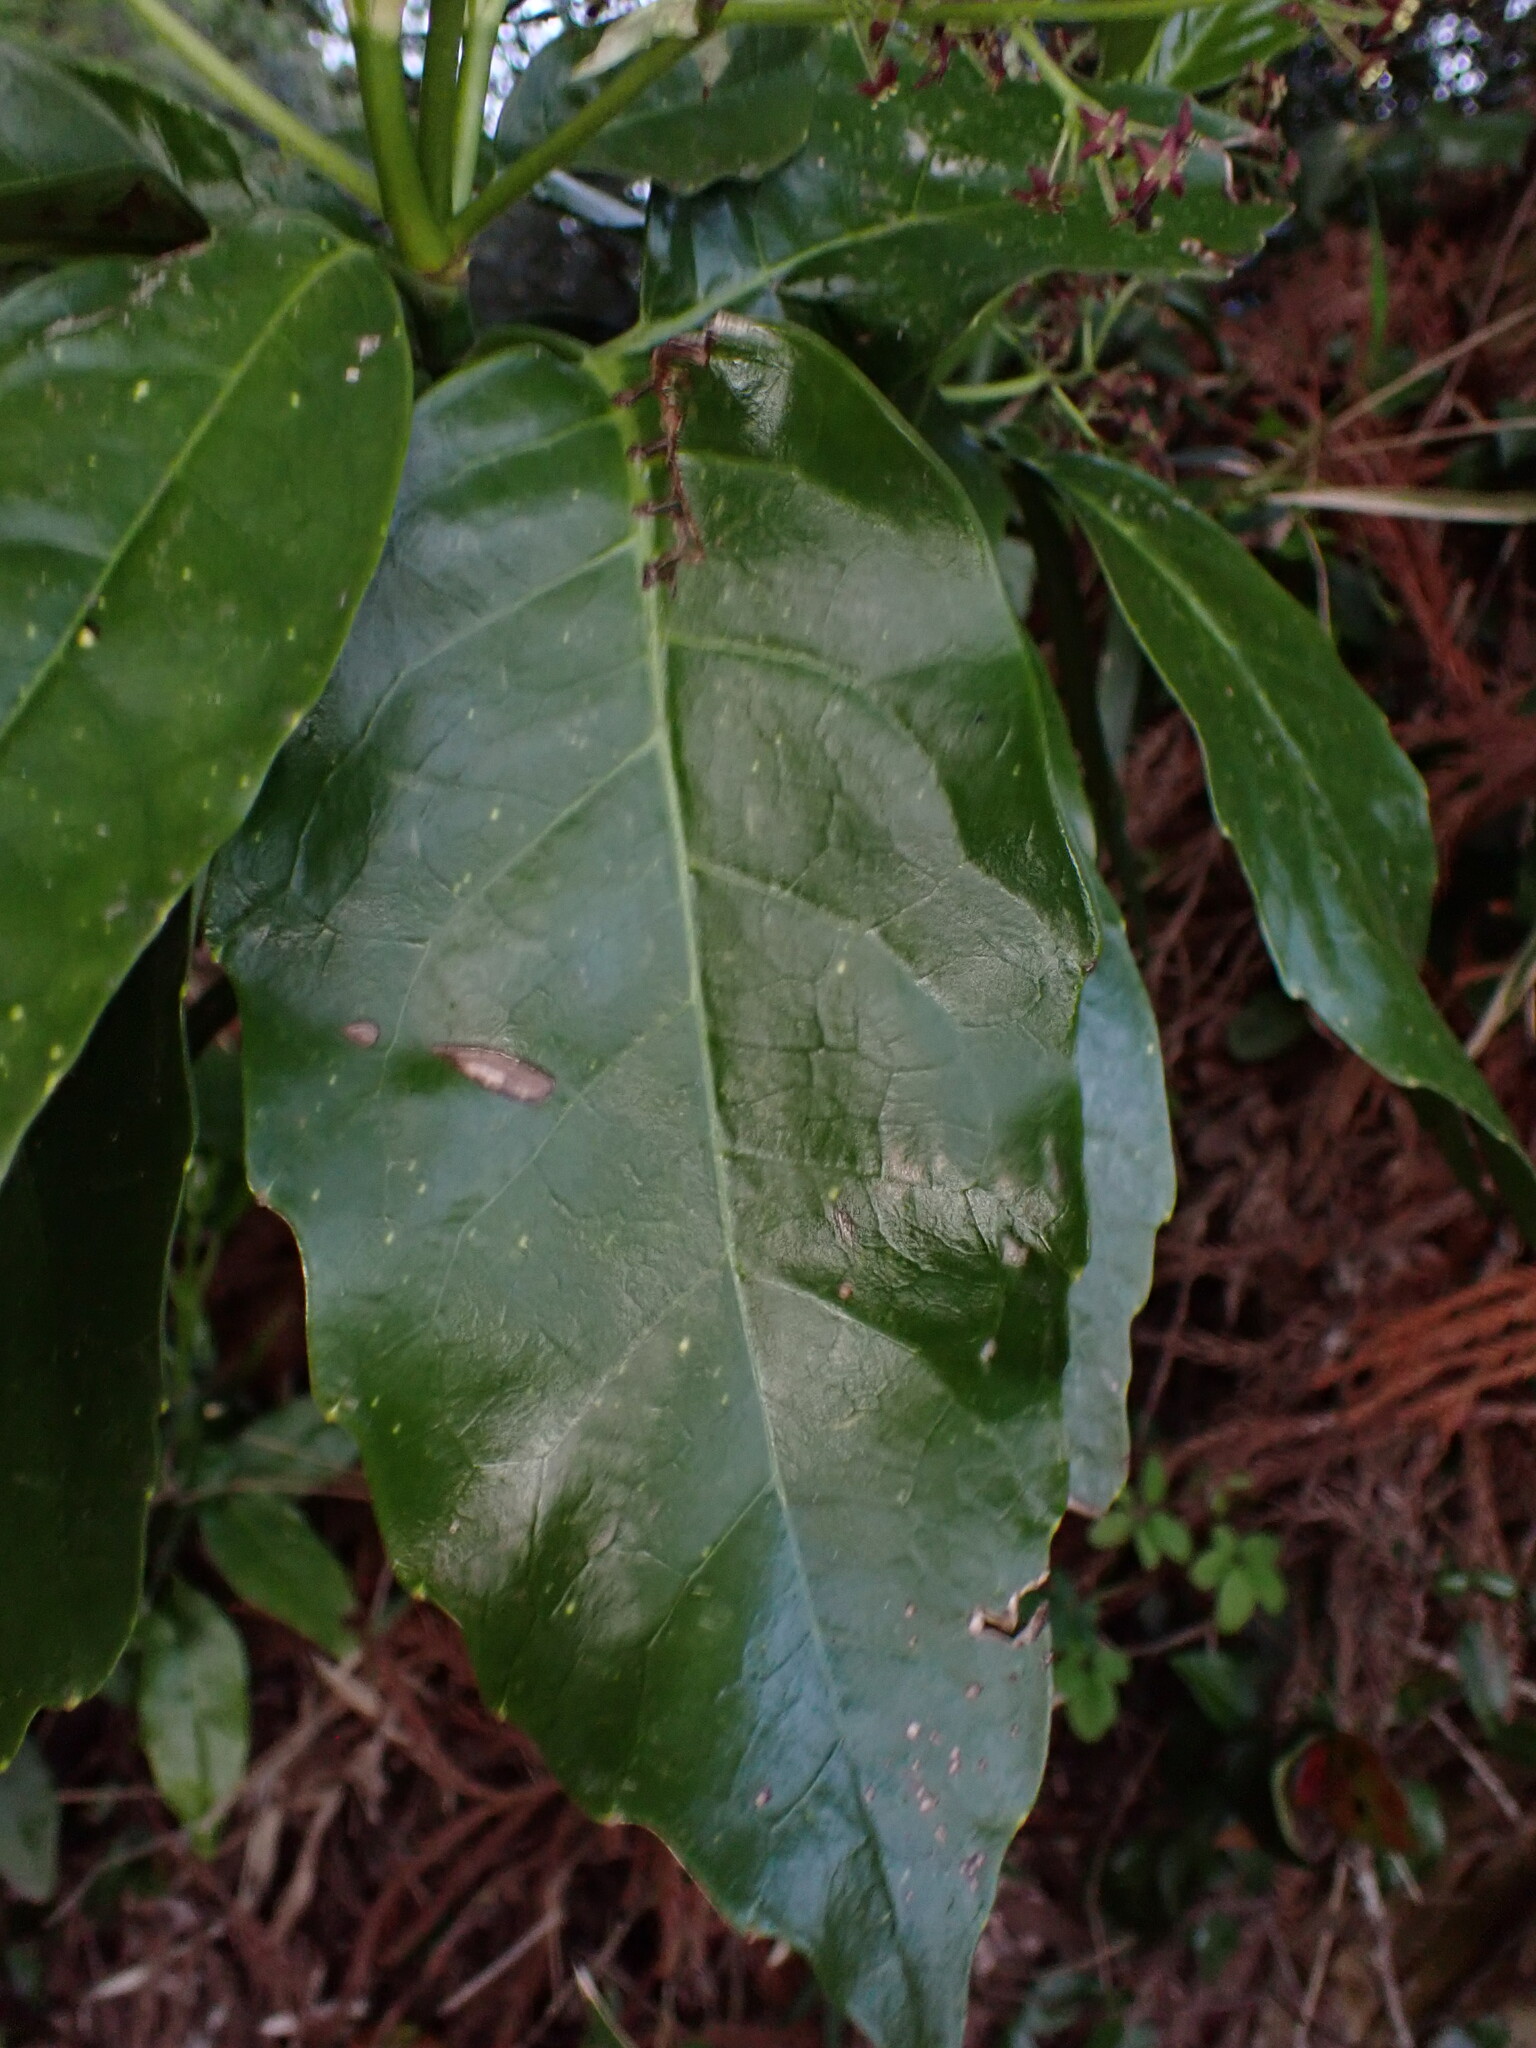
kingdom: Plantae
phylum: Tracheophyta
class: Magnoliopsida
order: Garryales
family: Garryaceae
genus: Aucuba
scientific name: Aucuba japonica
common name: Spotted-laurel
